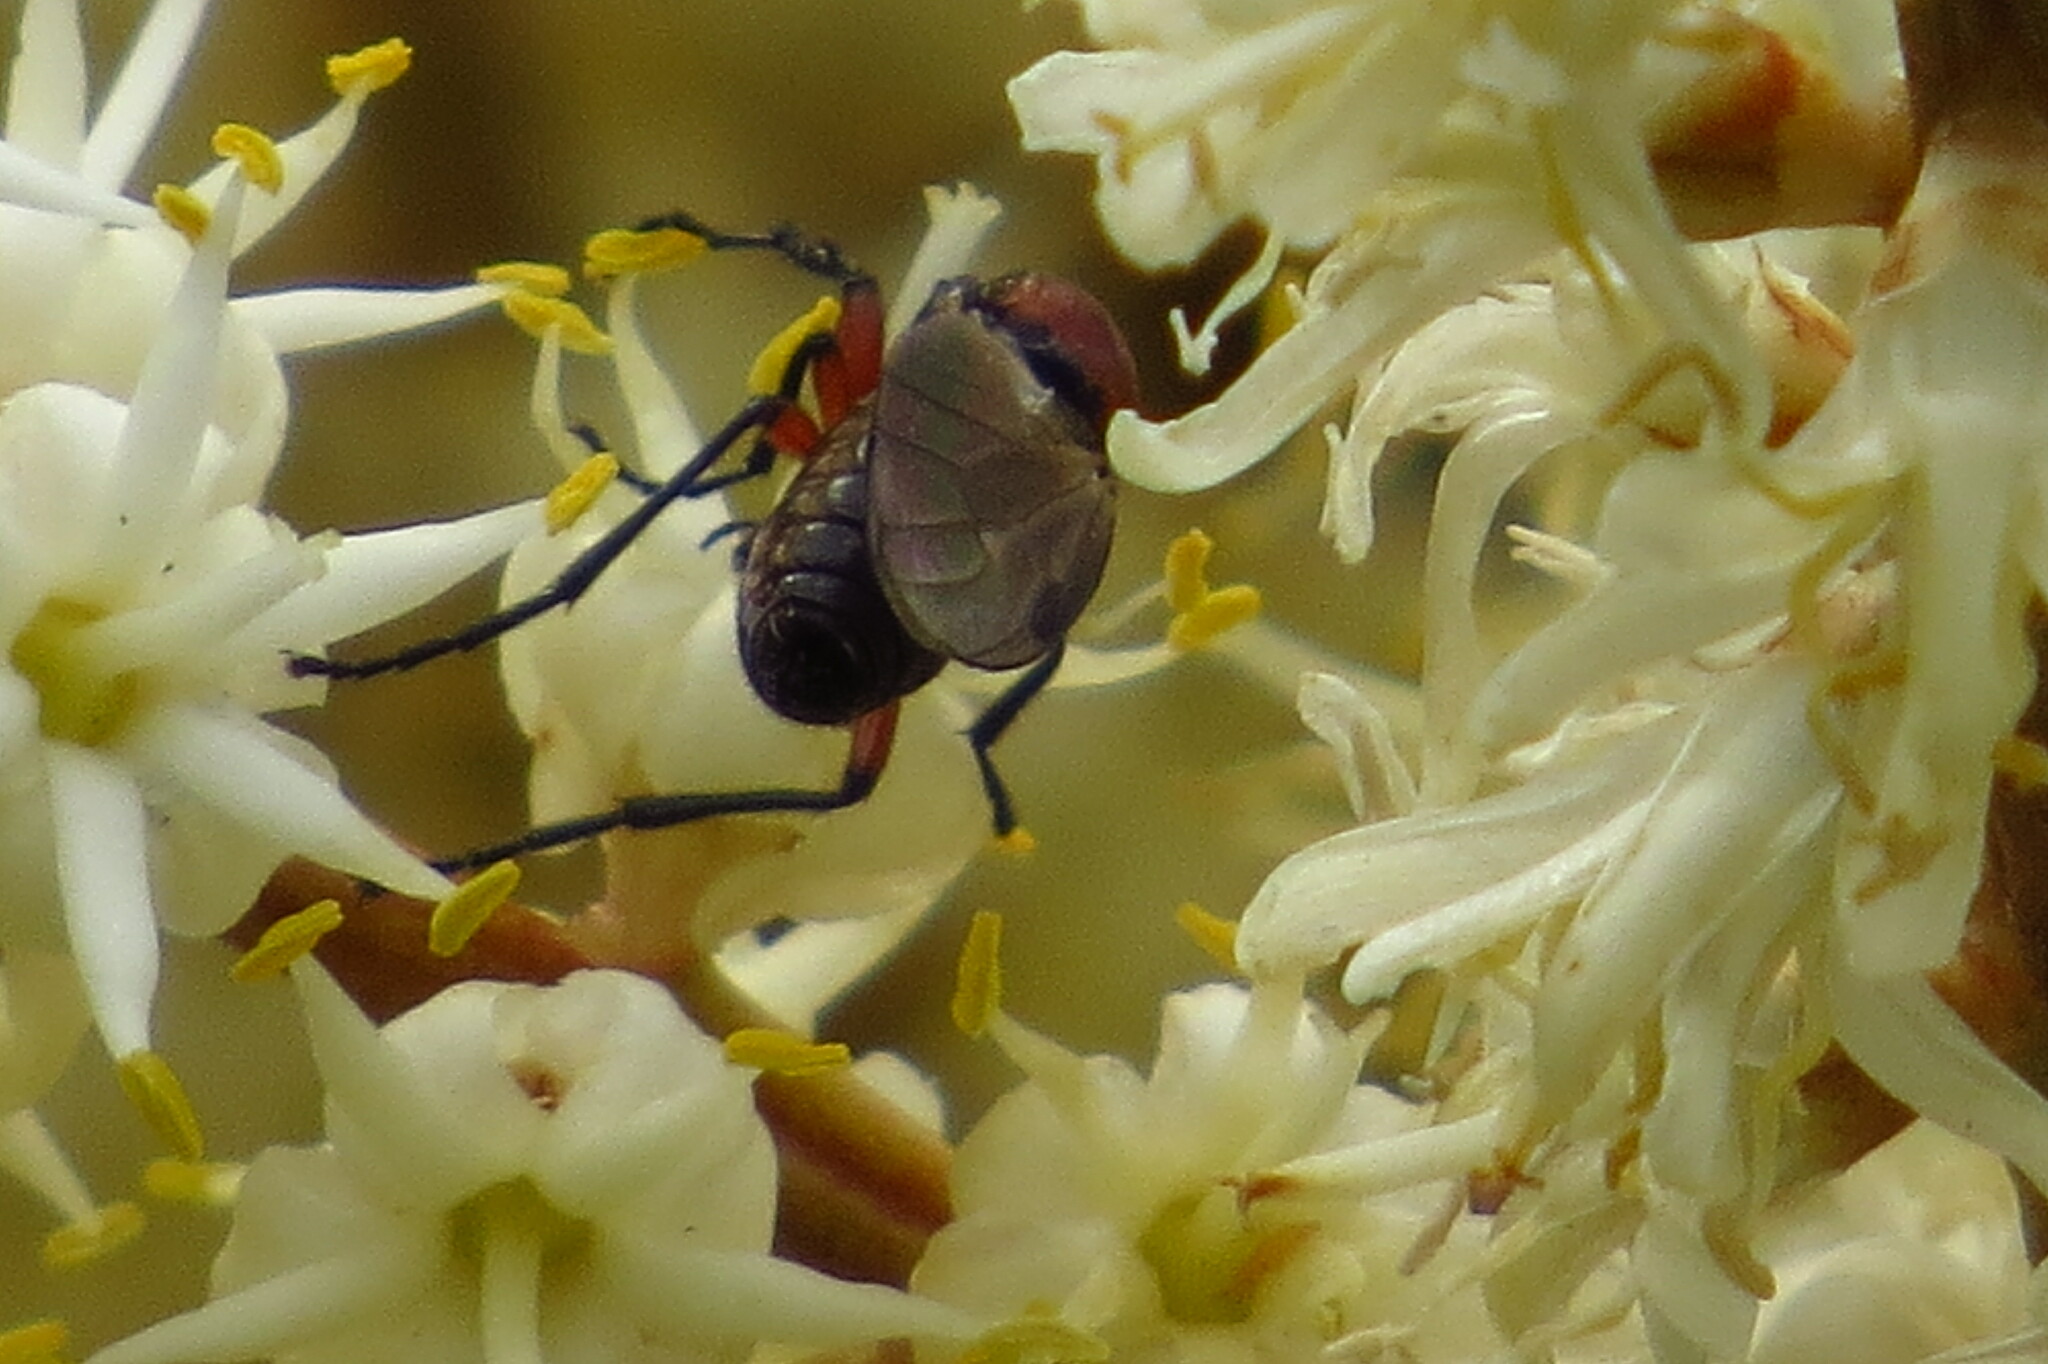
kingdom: Animalia
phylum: Arthropoda
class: Insecta
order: Diptera
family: Bibionidae
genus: Dilophus
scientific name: Dilophus nigrostigma
